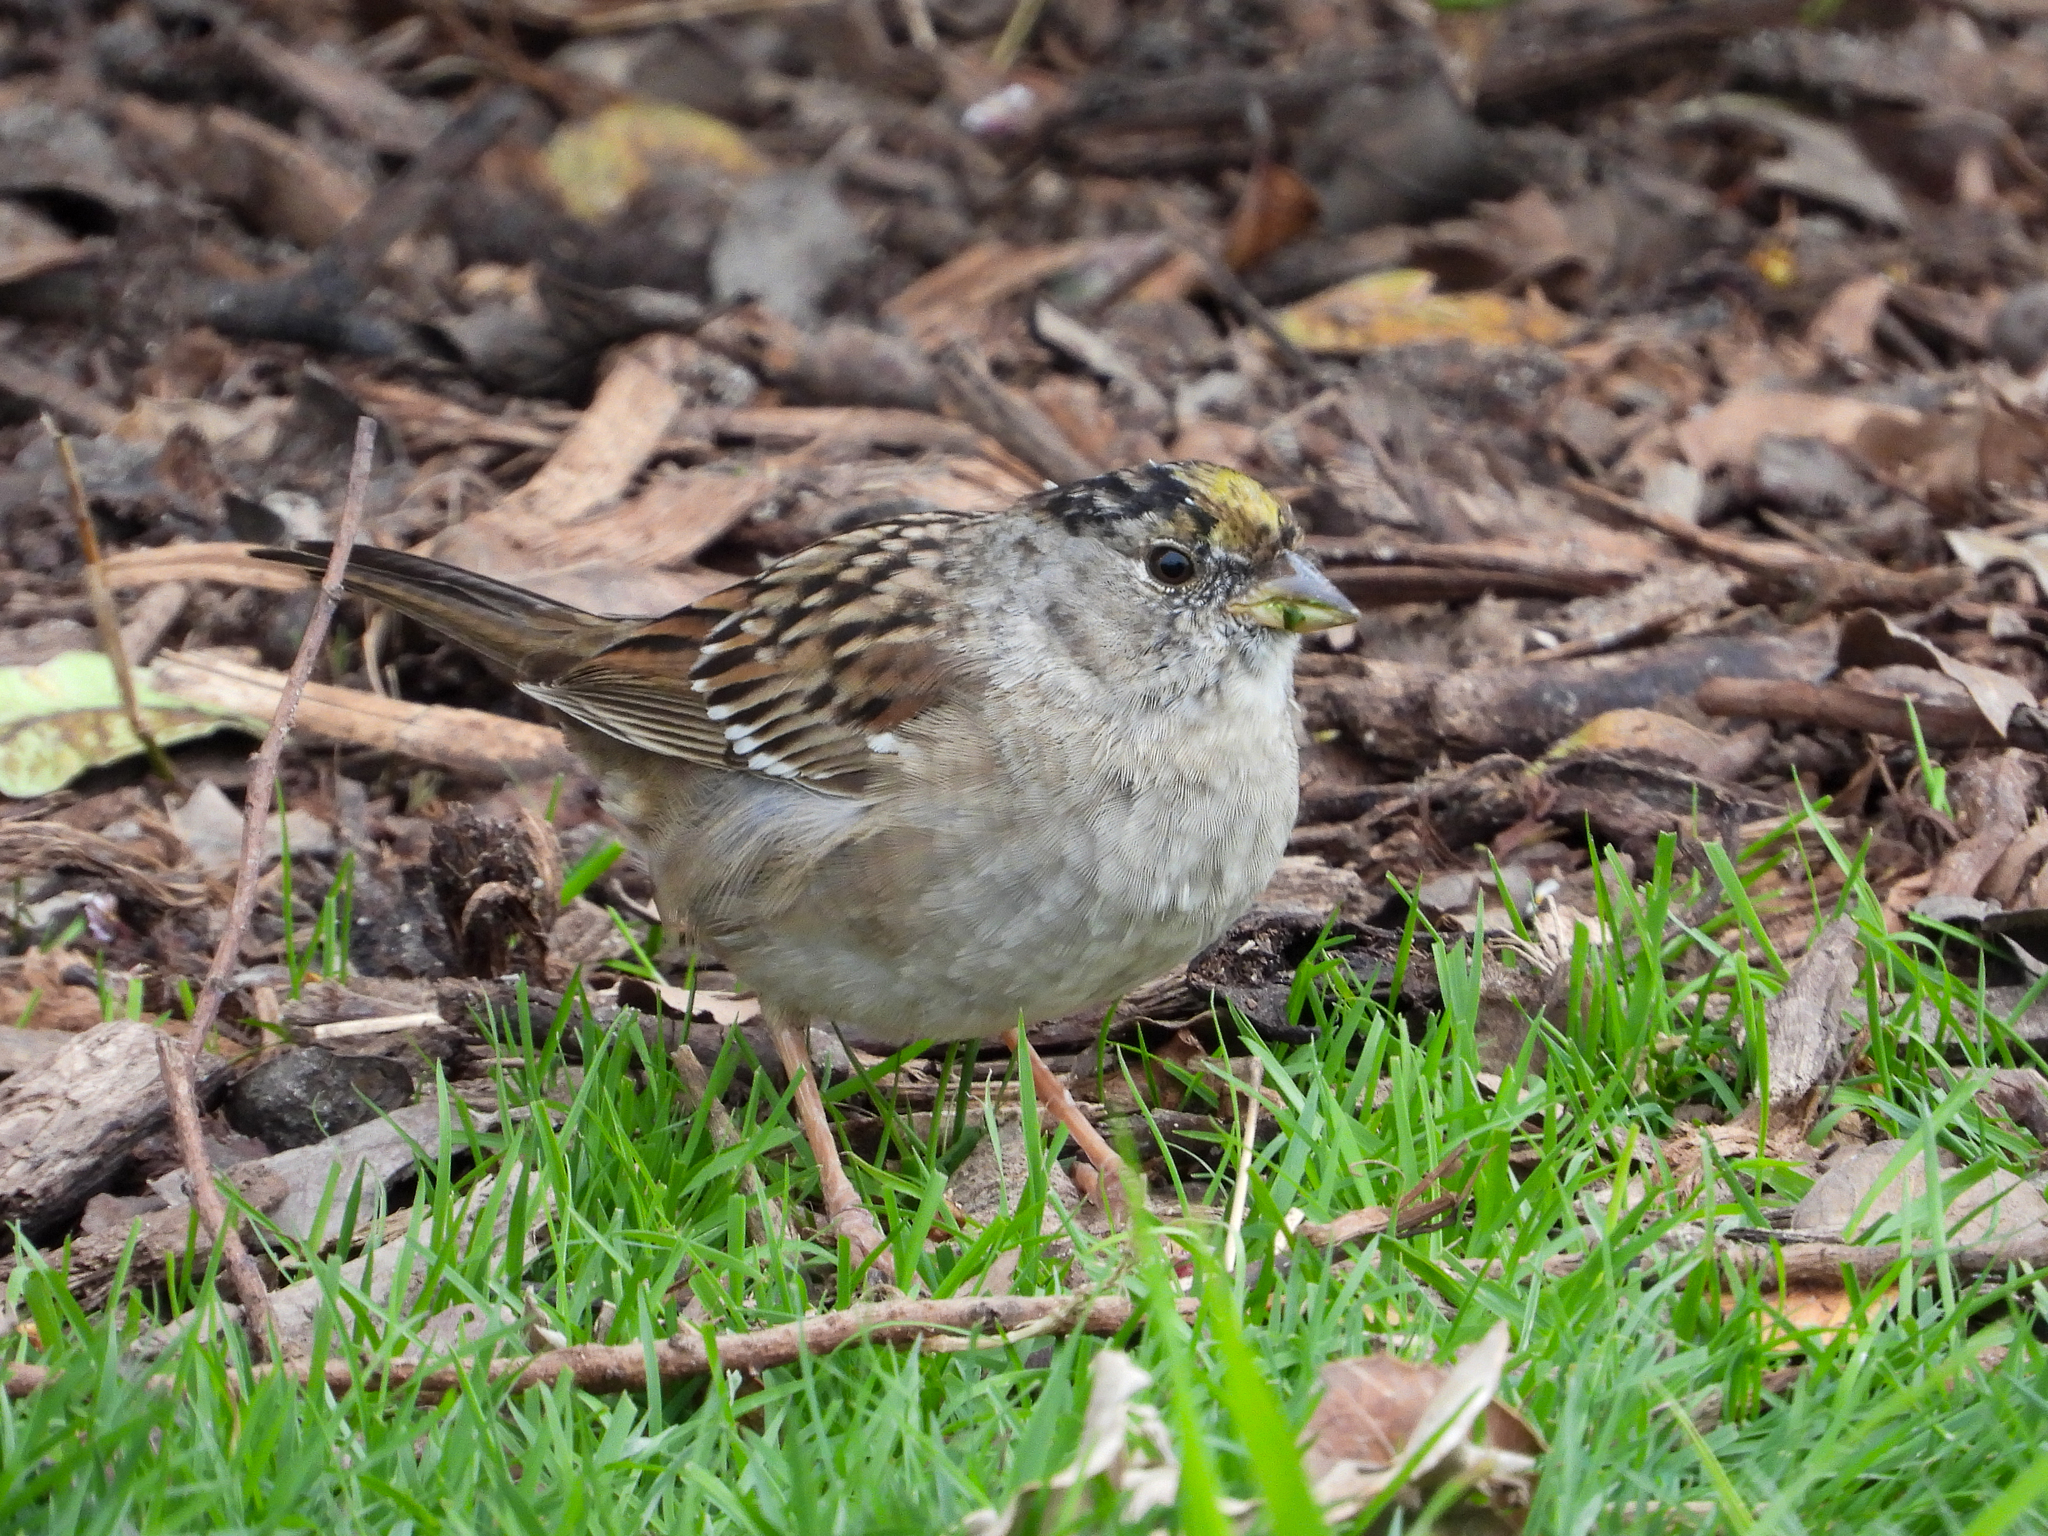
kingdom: Animalia
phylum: Chordata
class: Aves
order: Passeriformes
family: Passerellidae
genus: Zonotrichia
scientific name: Zonotrichia atricapilla
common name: Golden-crowned sparrow
